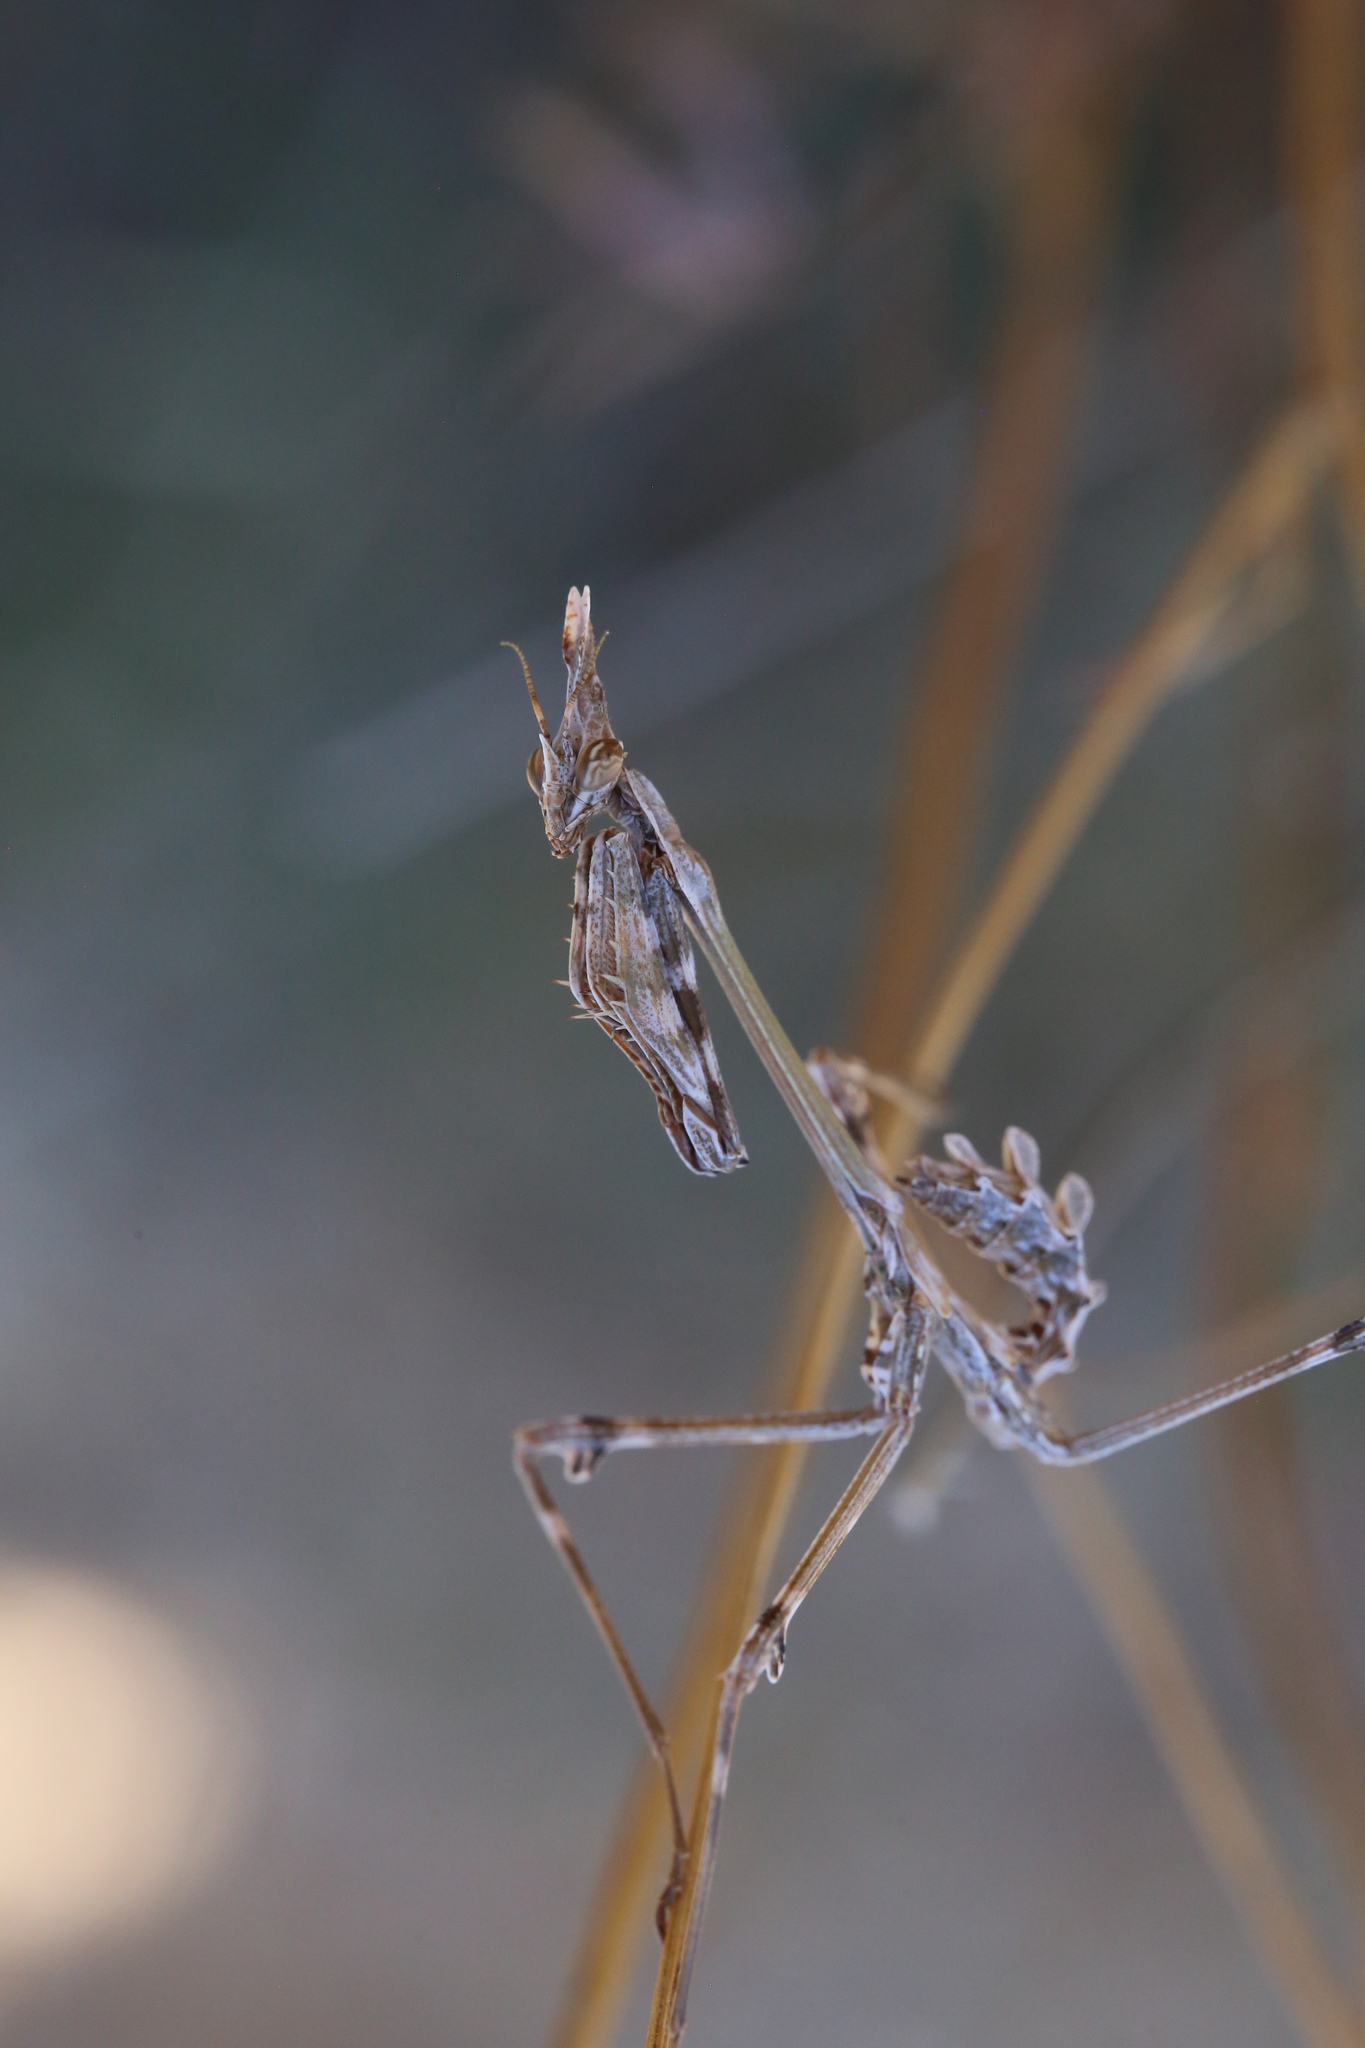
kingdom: Animalia
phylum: Arthropoda
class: Insecta
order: Mantodea
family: Empusidae
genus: Empusa
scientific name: Empusa fasciata
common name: Devil's mare
